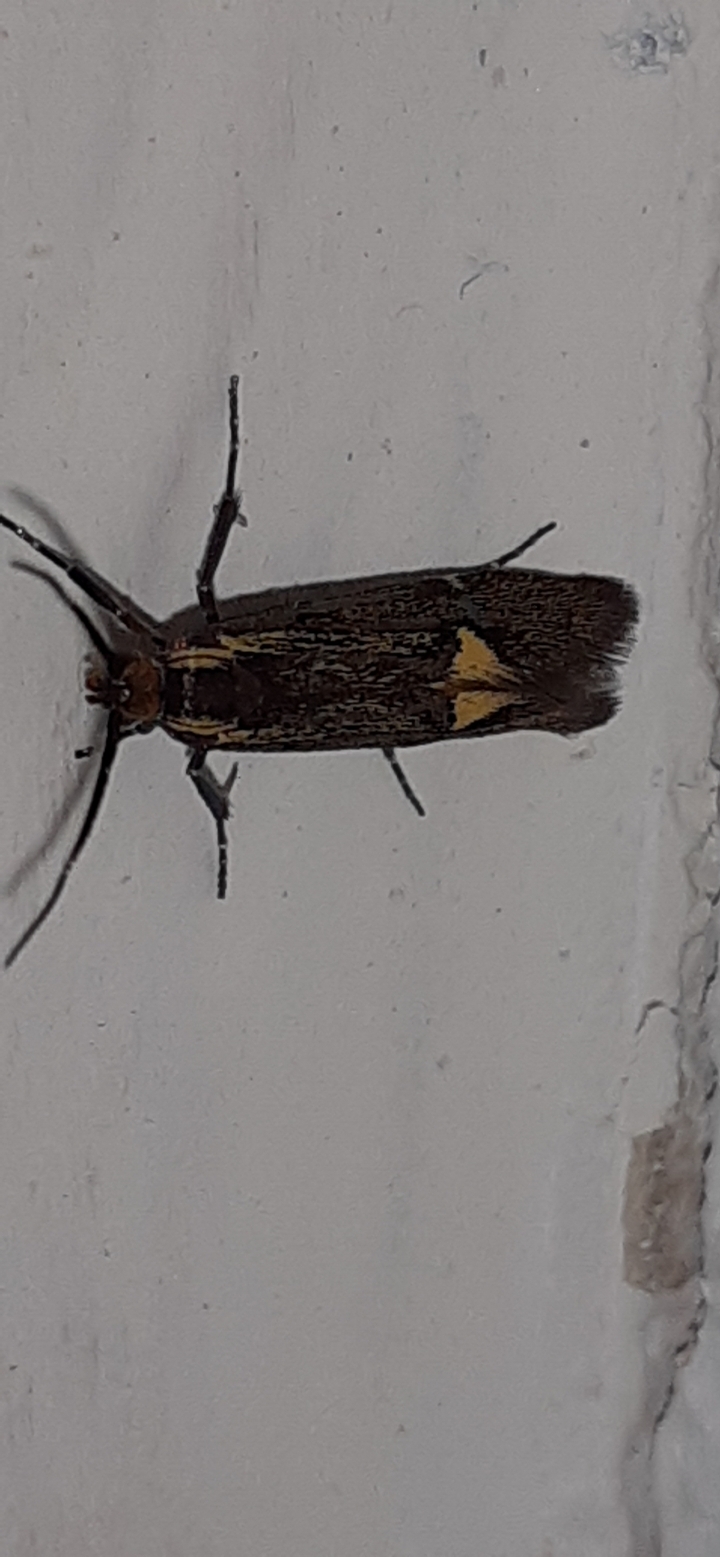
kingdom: Animalia
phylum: Arthropoda
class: Insecta
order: Lepidoptera
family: Oecophoridae
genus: Dafa
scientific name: Dafa Esperia sulphurella
